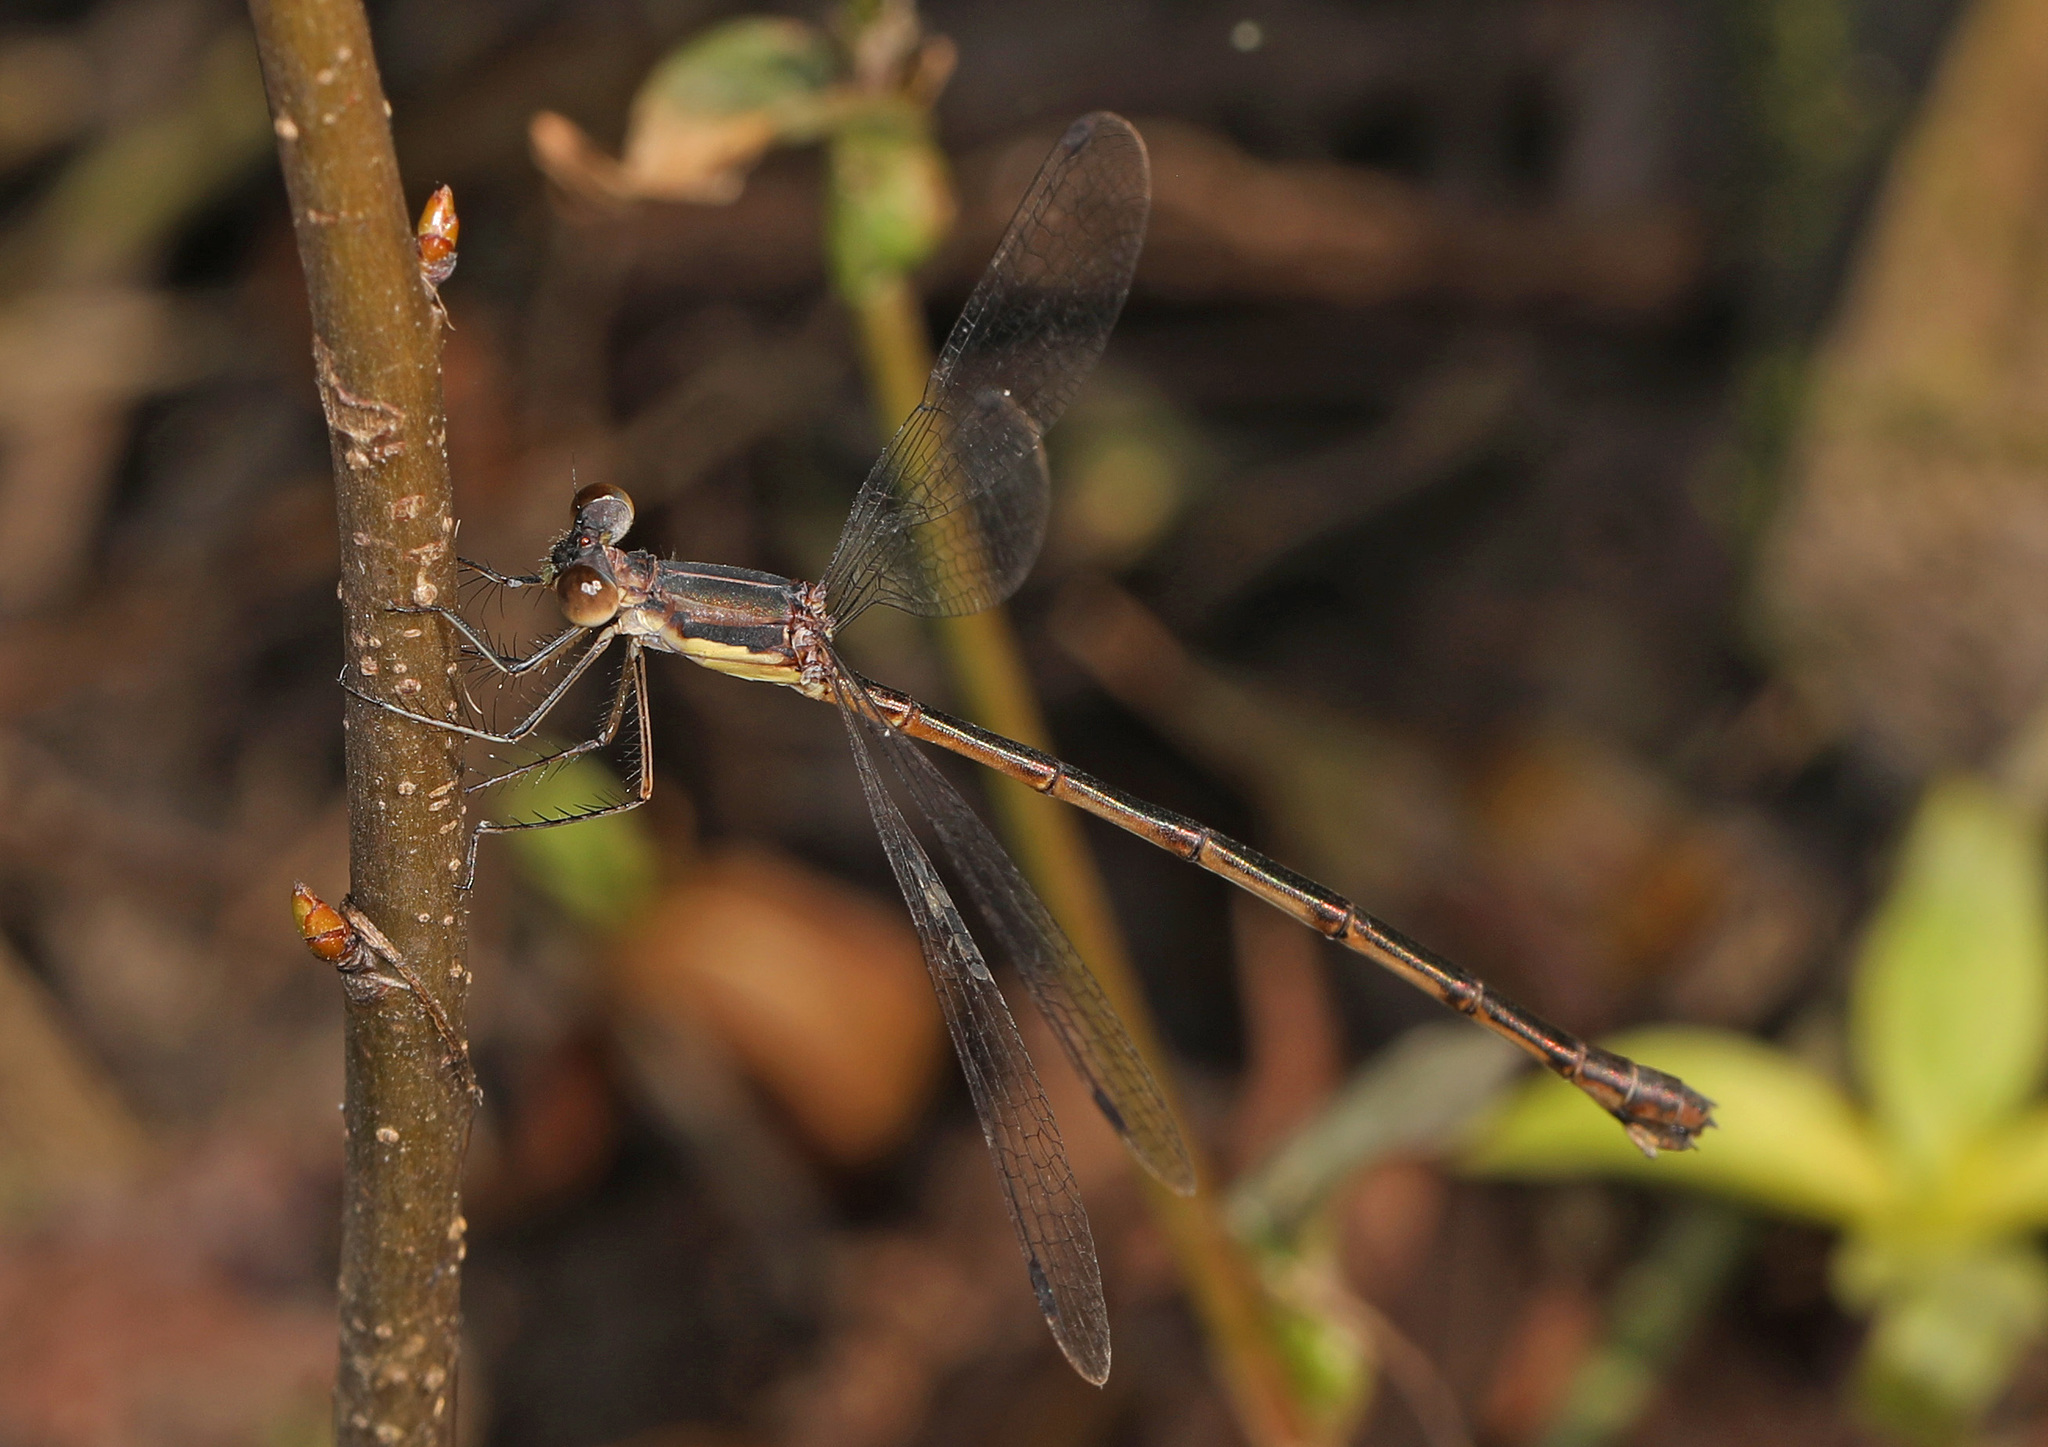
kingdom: Animalia
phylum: Arthropoda
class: Insecta
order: Odonata
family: Lestidae
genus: Lestes
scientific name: Lestes rectangularis
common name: Slender spreadwing
